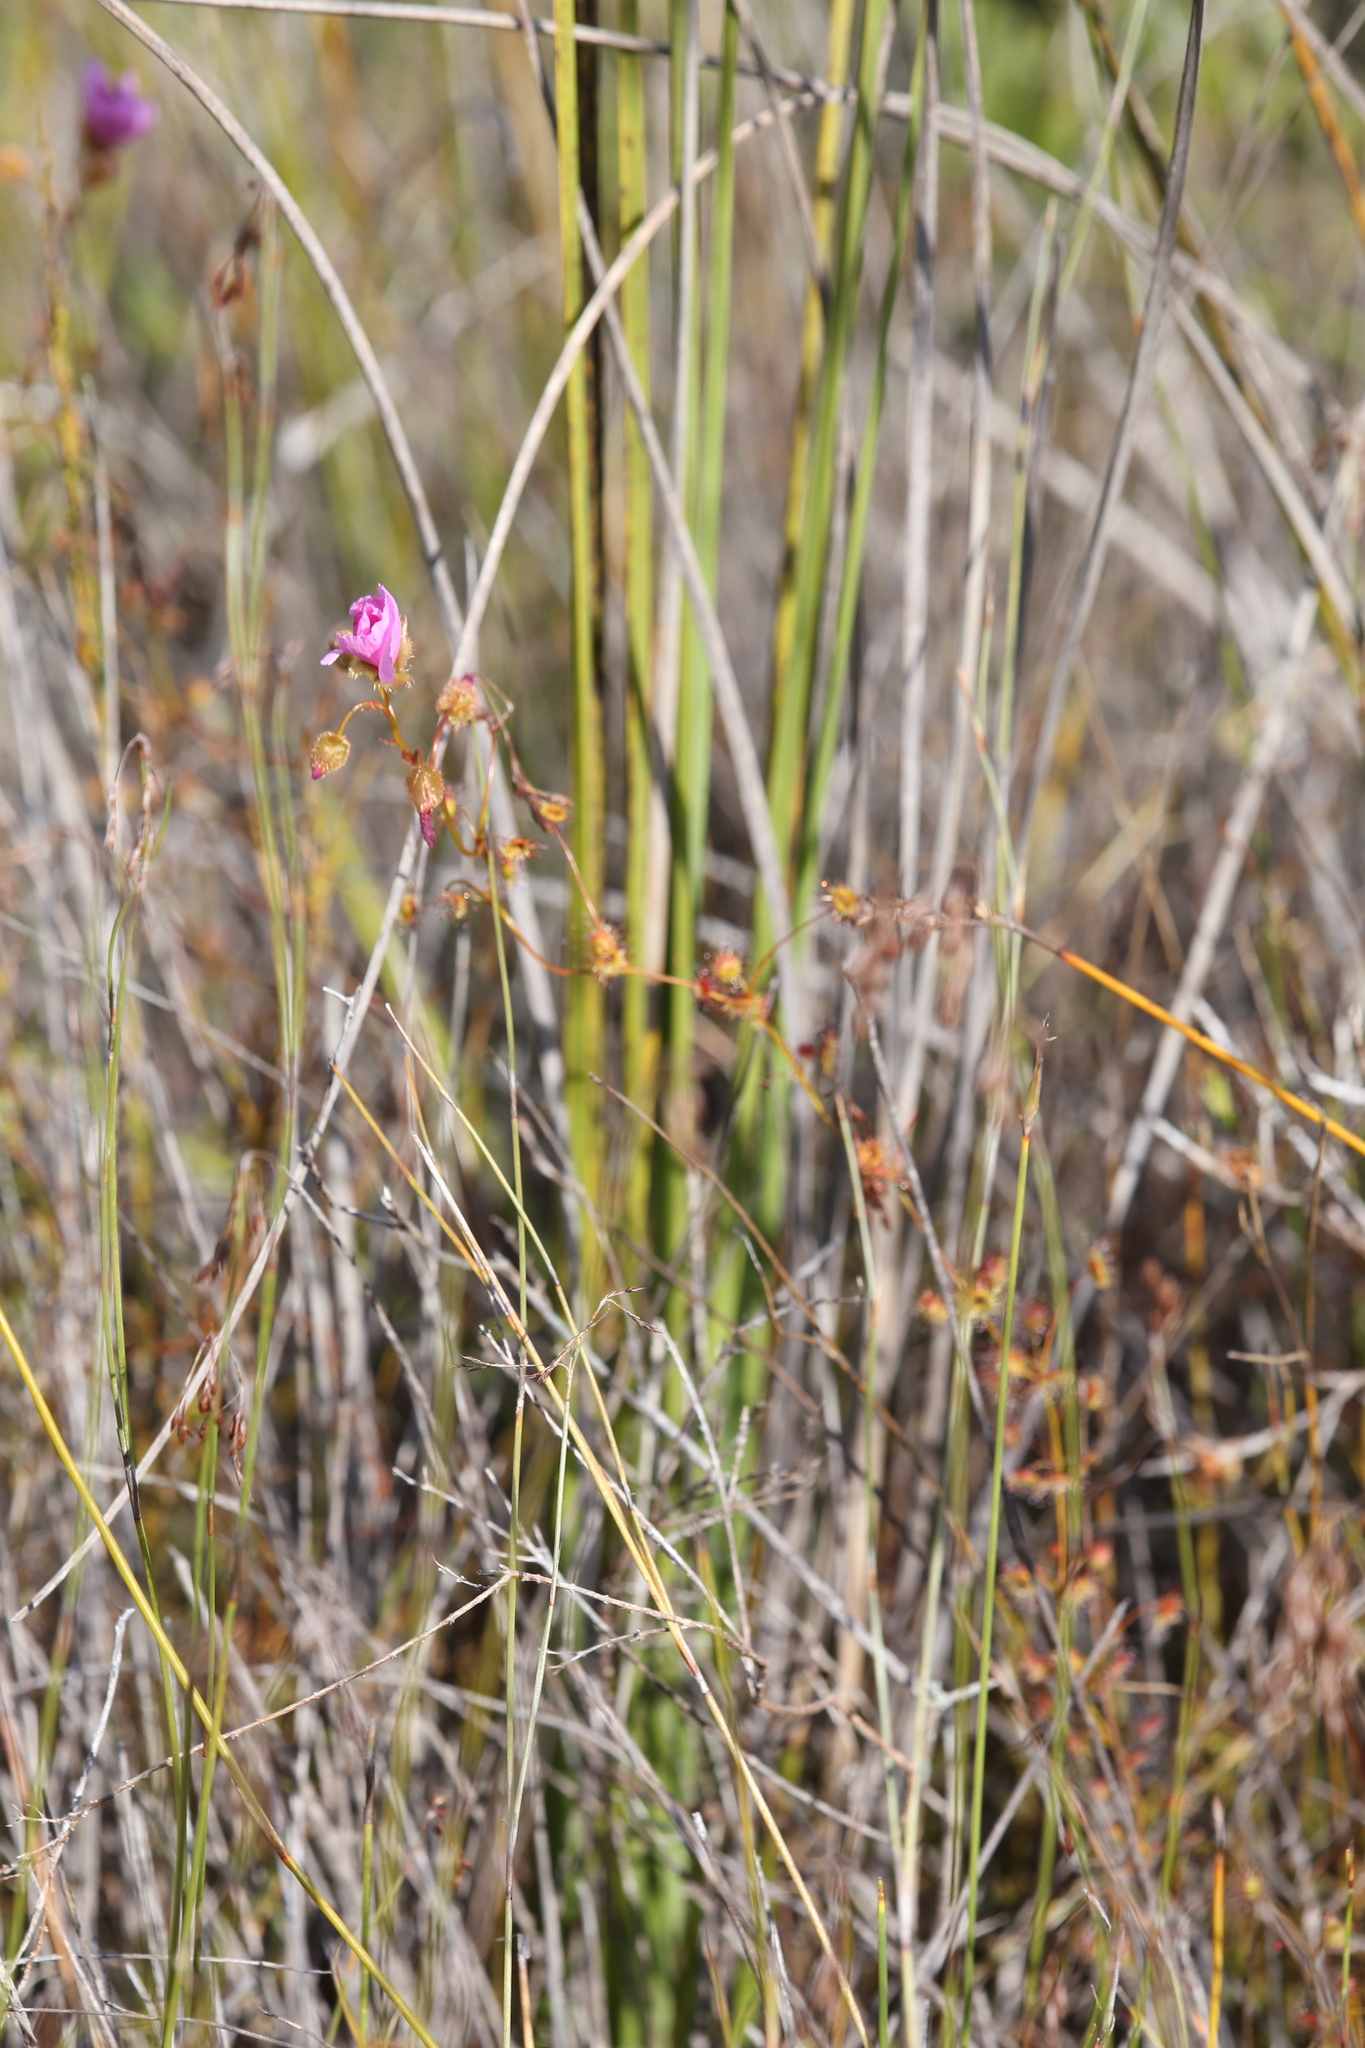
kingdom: Plantae
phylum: Tracheophyta
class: Magnoliopsida
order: Caryophyllales
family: Droseraceae
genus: Drosera
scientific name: Drosera
